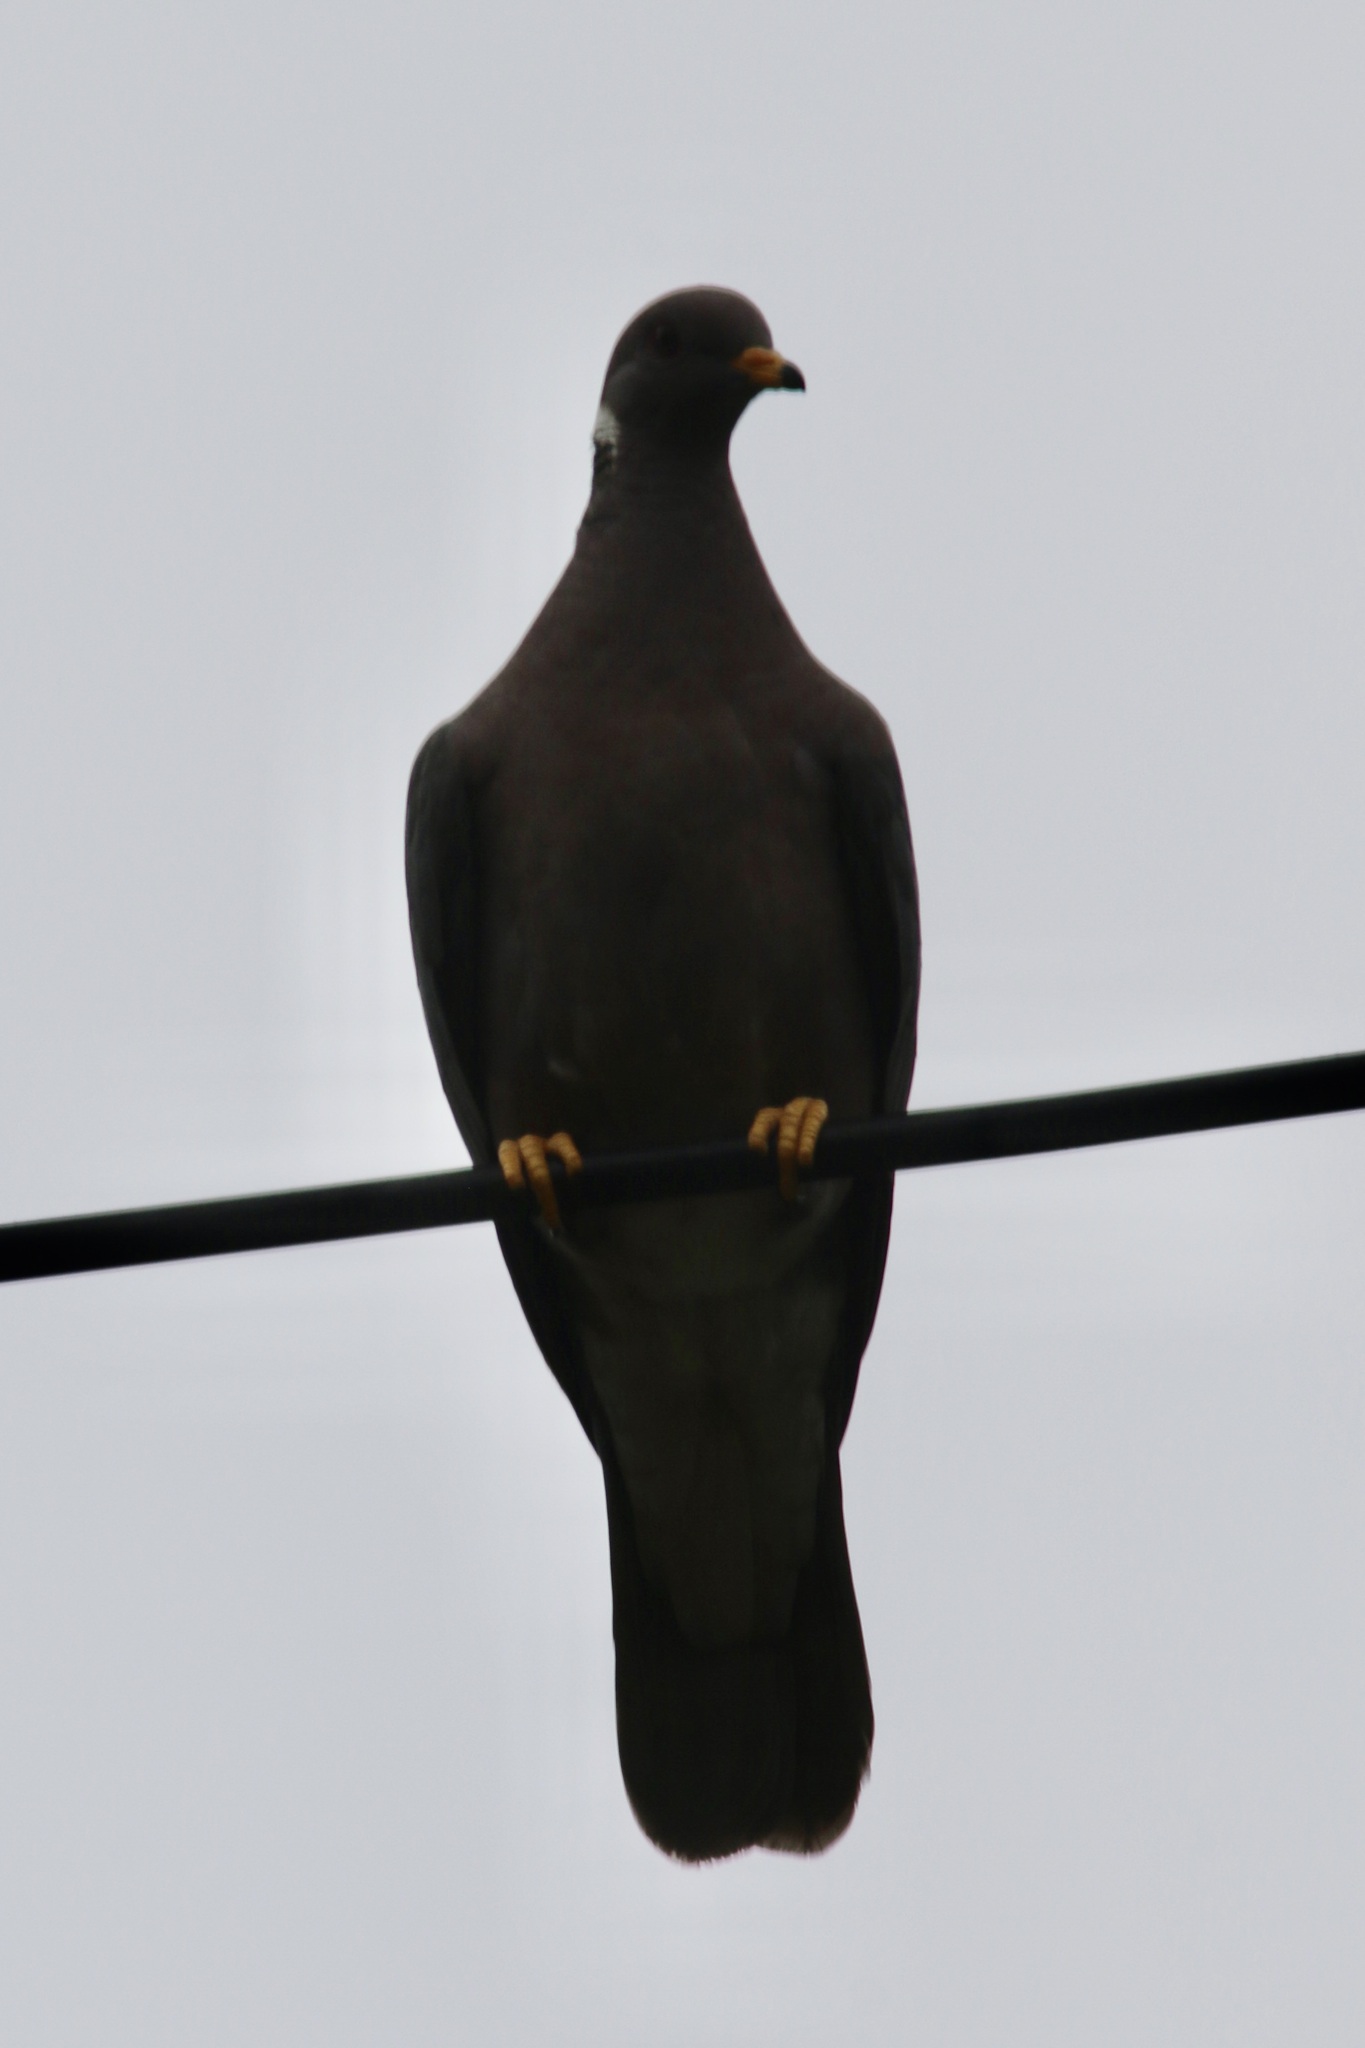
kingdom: Animalia
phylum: Chordata
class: Aves
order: Columbiformes
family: Columbidae
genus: Patagioenas
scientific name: Patagioenas fasciata
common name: Band-tailed pigeon
